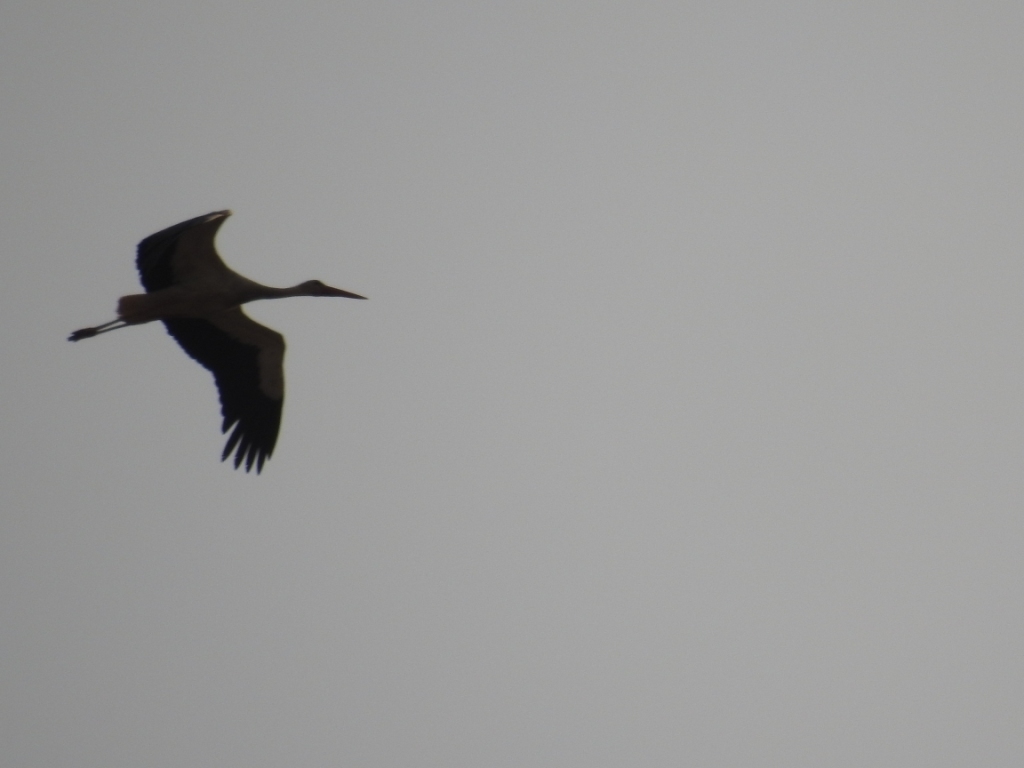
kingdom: Animalia
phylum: Chordata
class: Aves
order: Ciconiiformes
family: Ciconiidae
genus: Ciconia
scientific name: Ciconia ciconia
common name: White stork
